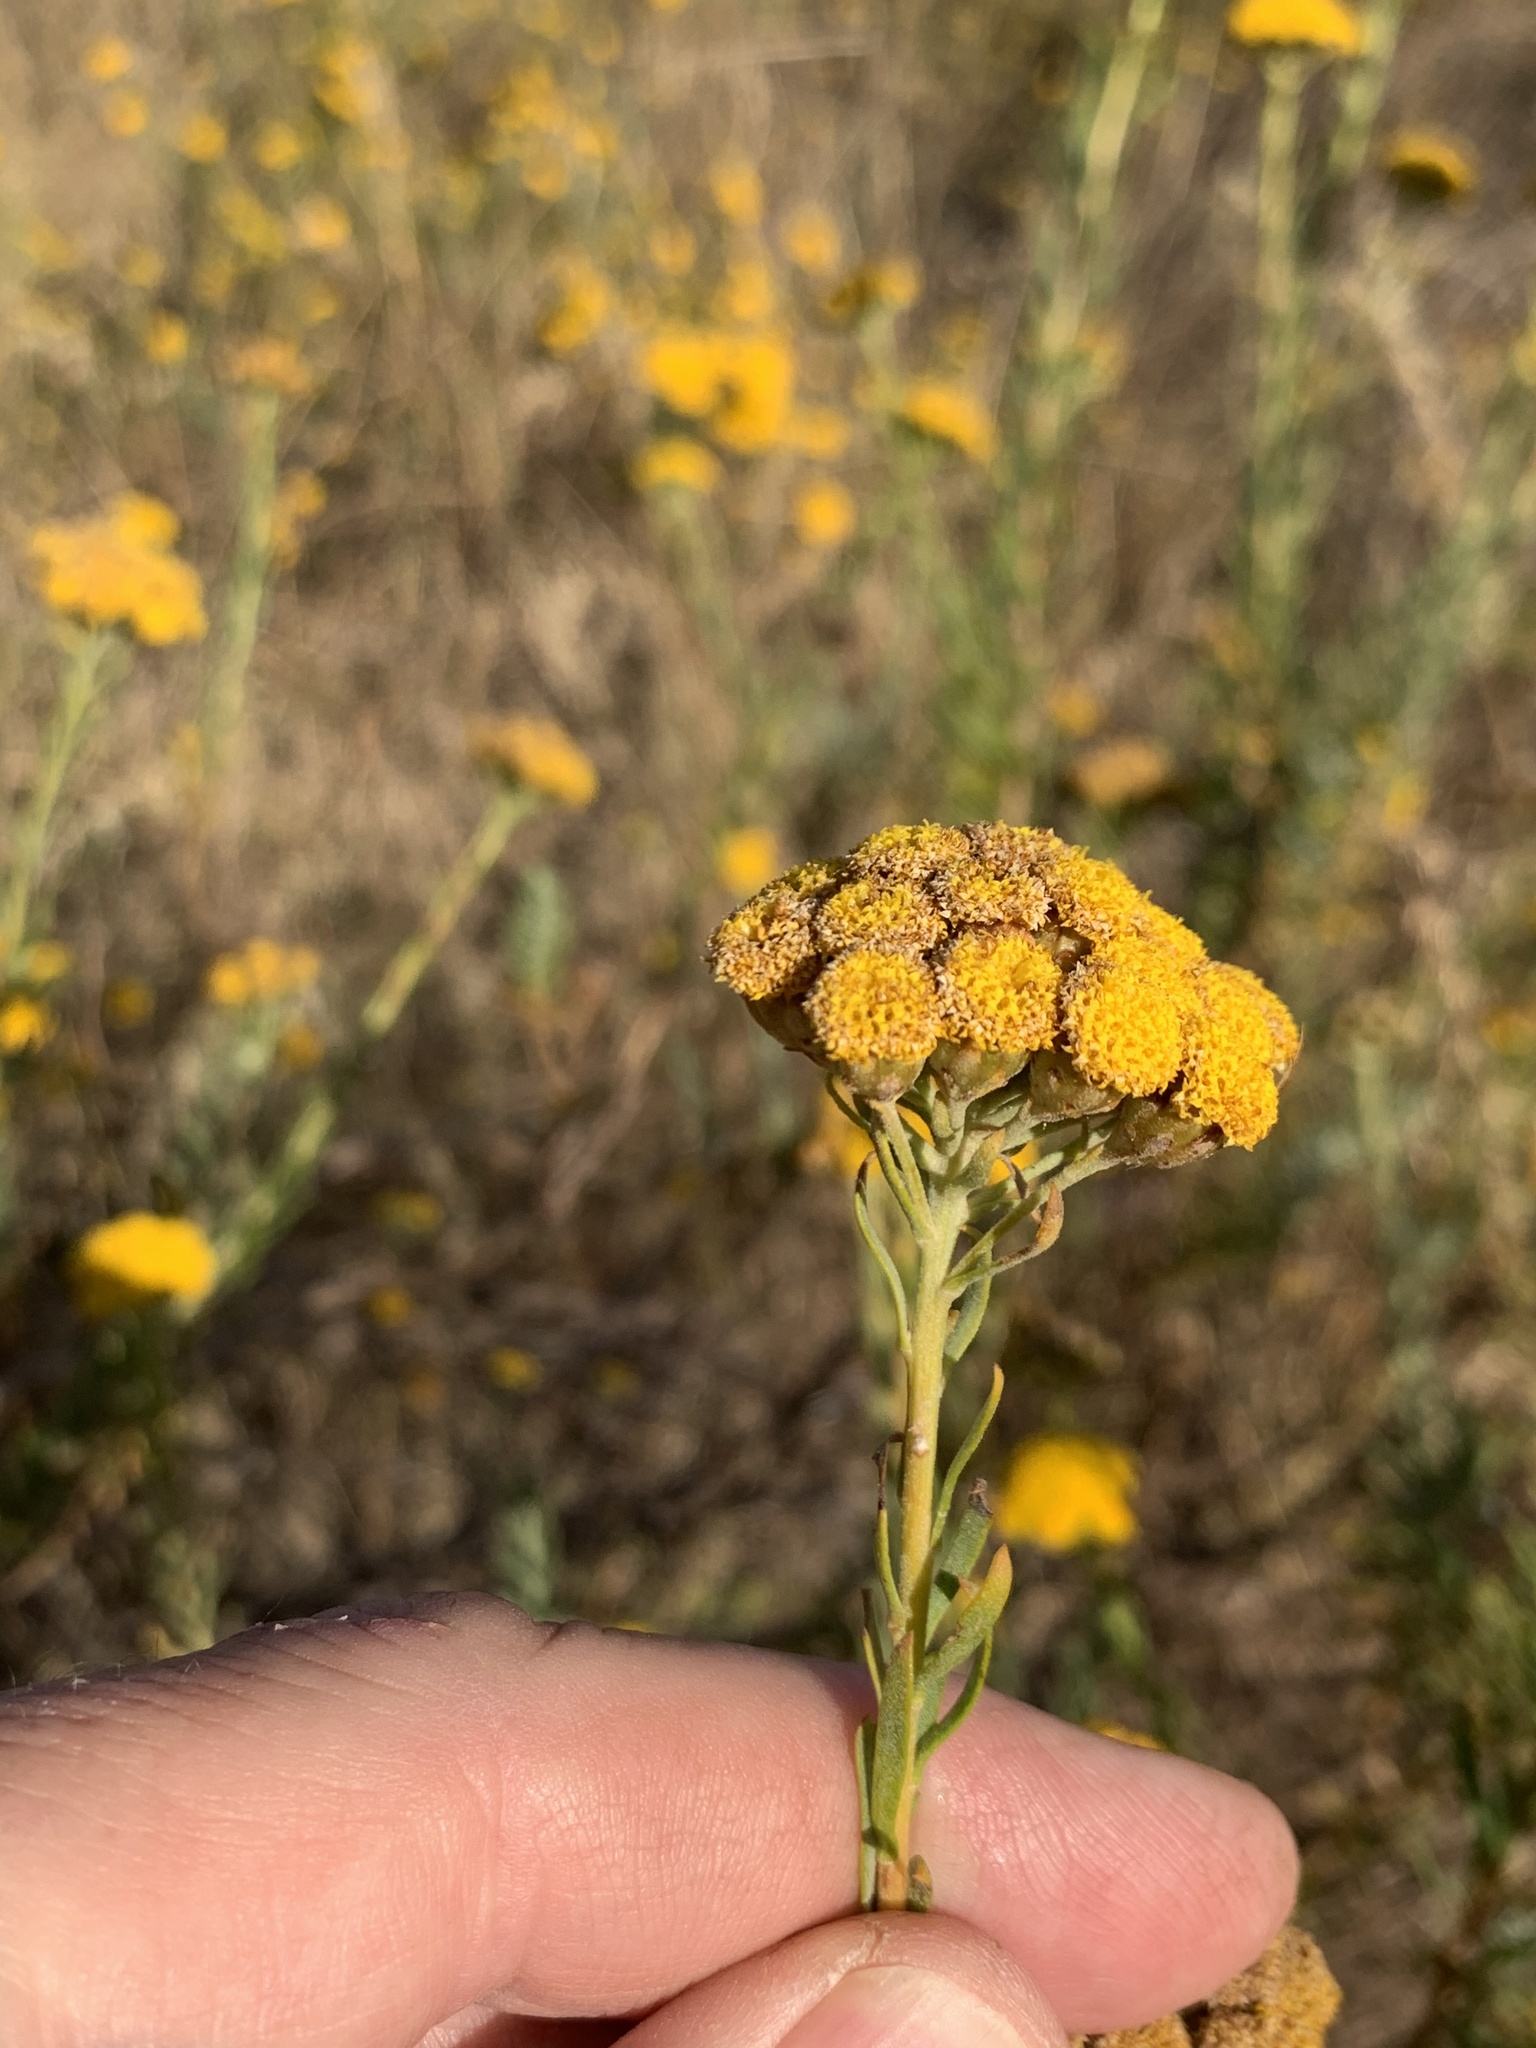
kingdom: Plantae
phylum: Tracheophyta
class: Magnoliopsida
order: Asterales
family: Asteraceae
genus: Athanasia
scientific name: Athanasia trifurcata
